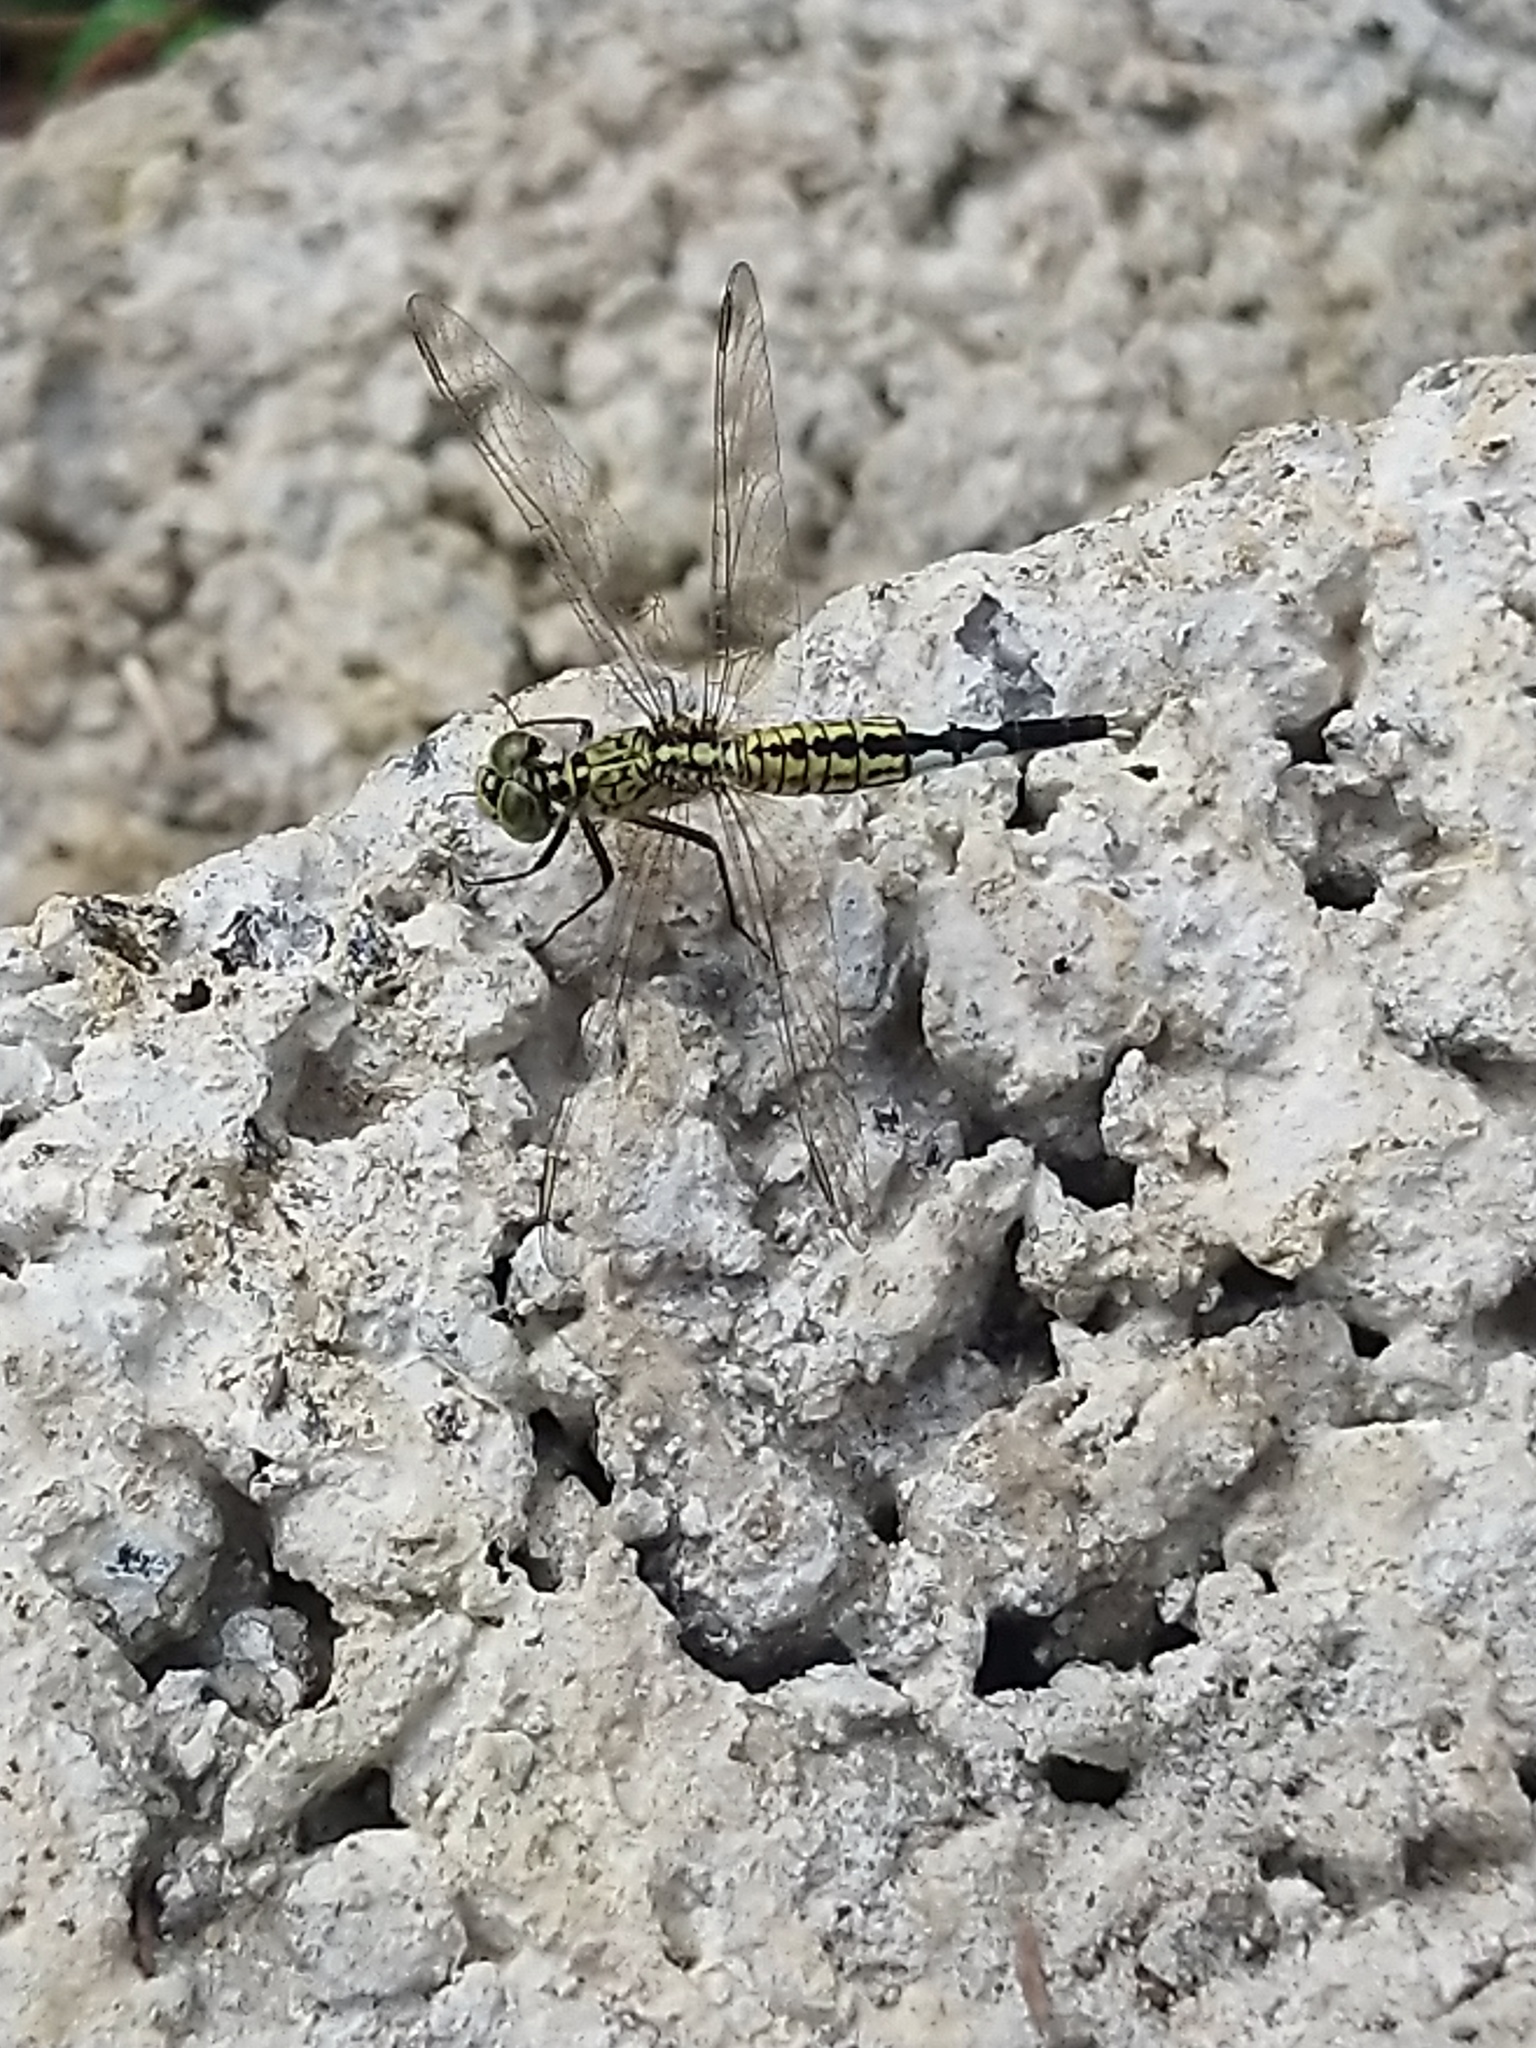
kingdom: Animalia
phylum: Arthropoda
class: Insecta
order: Odonata
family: Libellulidae
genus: Acisoma
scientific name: Acisoma panorpoides
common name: Asian pintail
